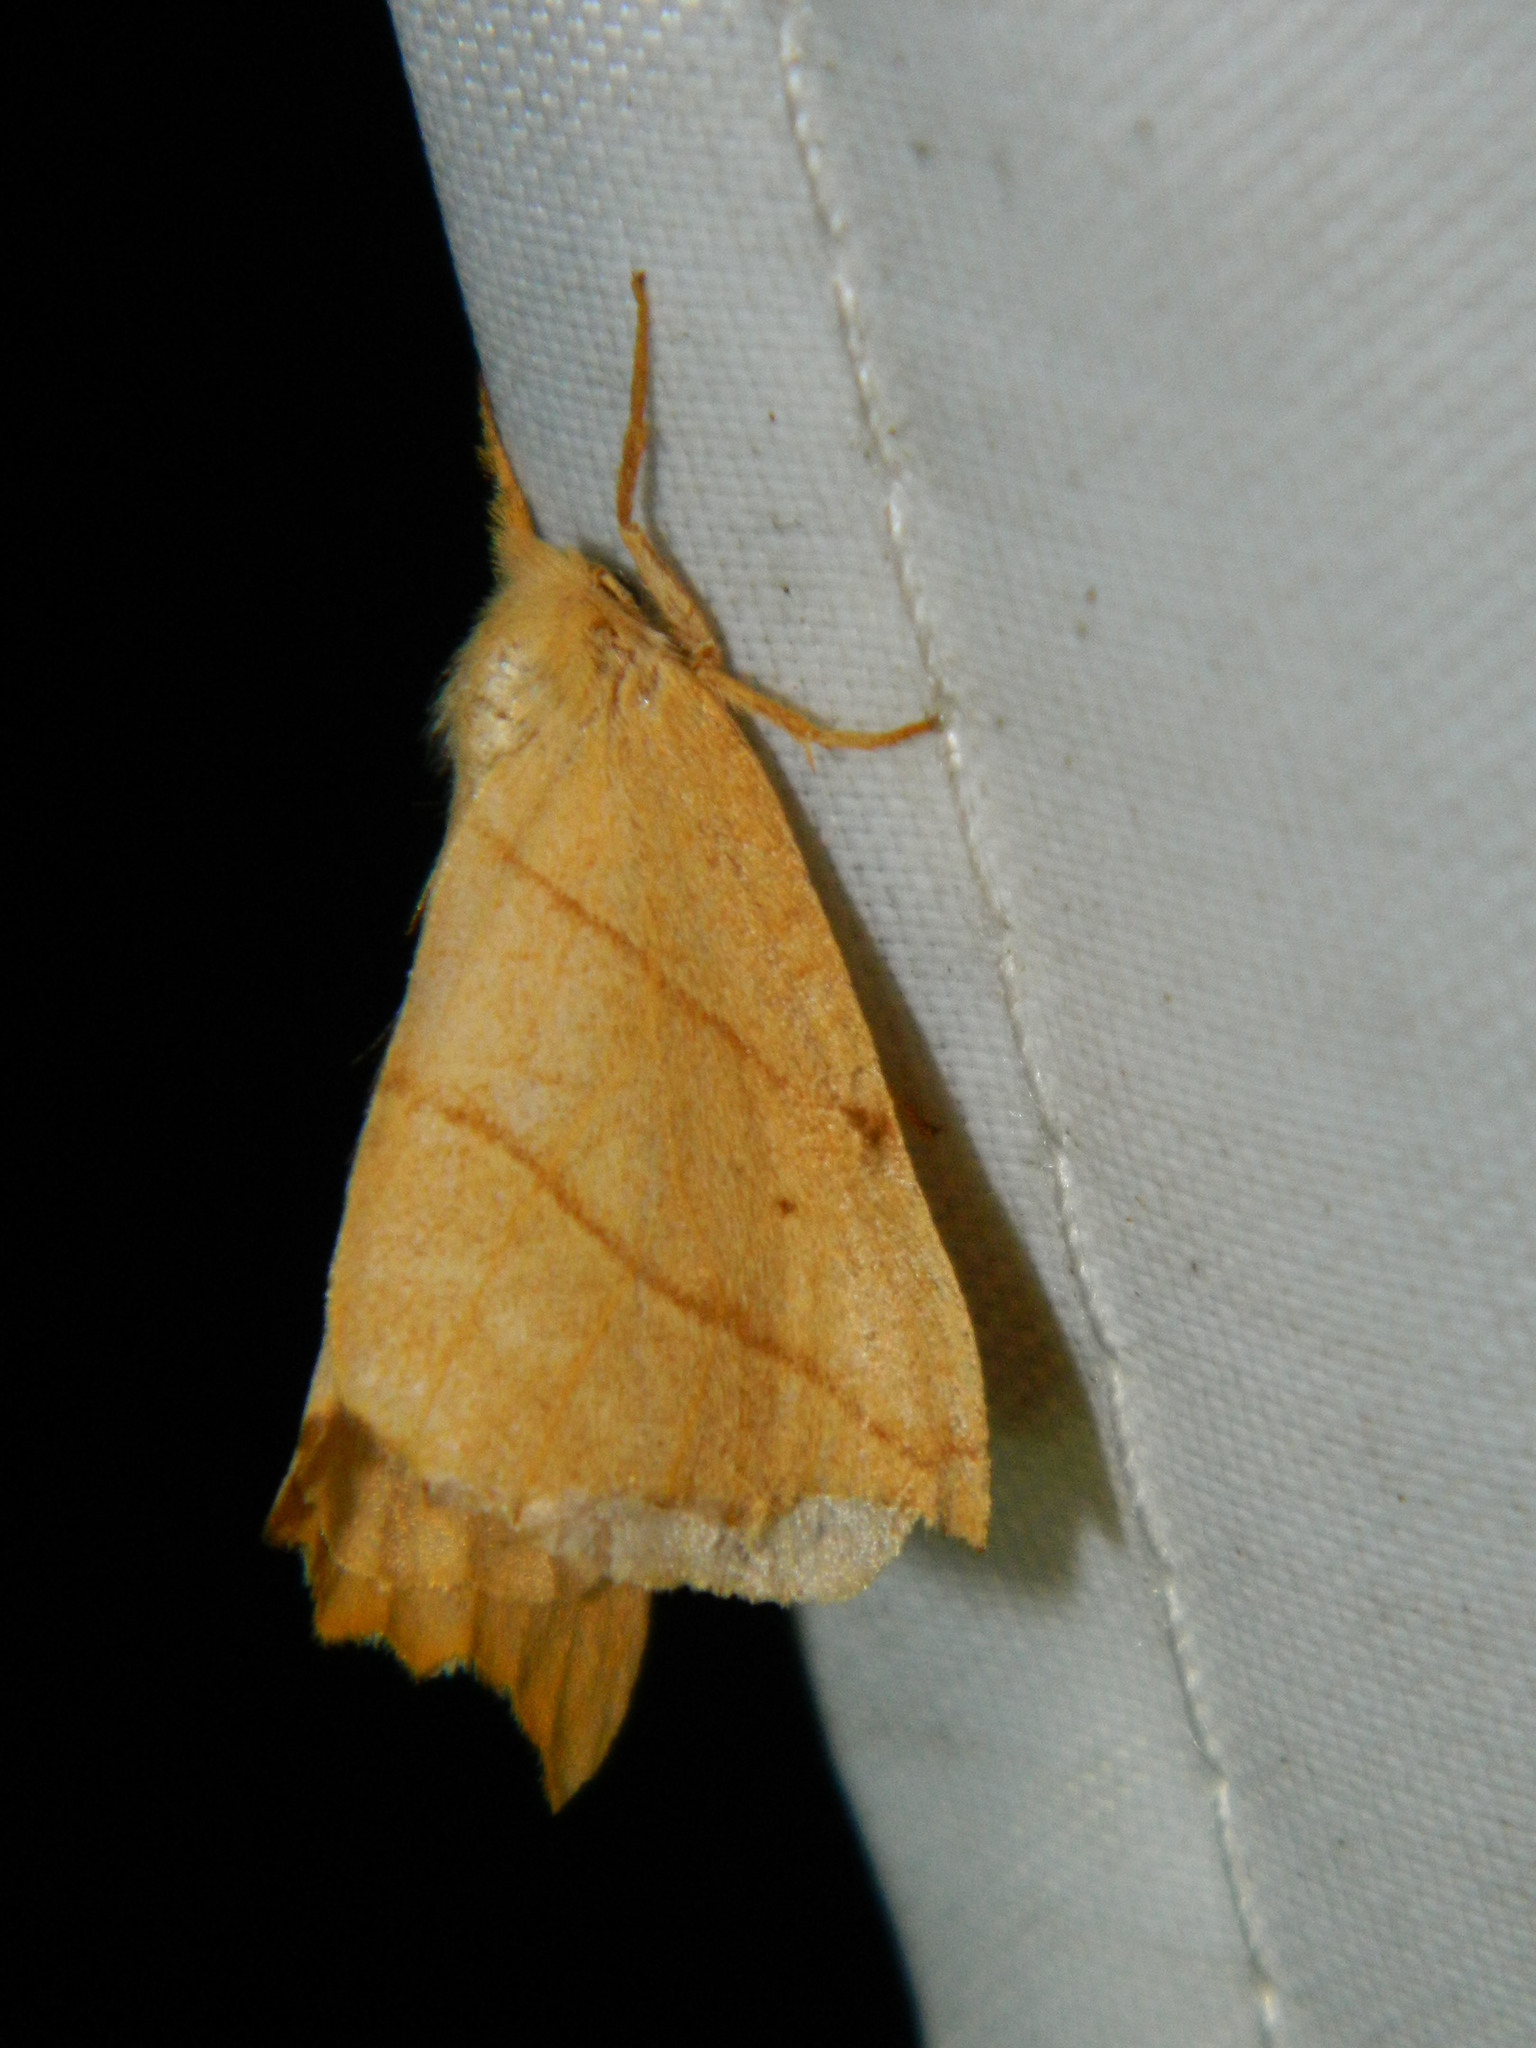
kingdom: Animalia
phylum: Arthropoda
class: Insecta
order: Lepidoptera
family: Drepanidae
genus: Falcaria
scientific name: Falcaria bilineata
